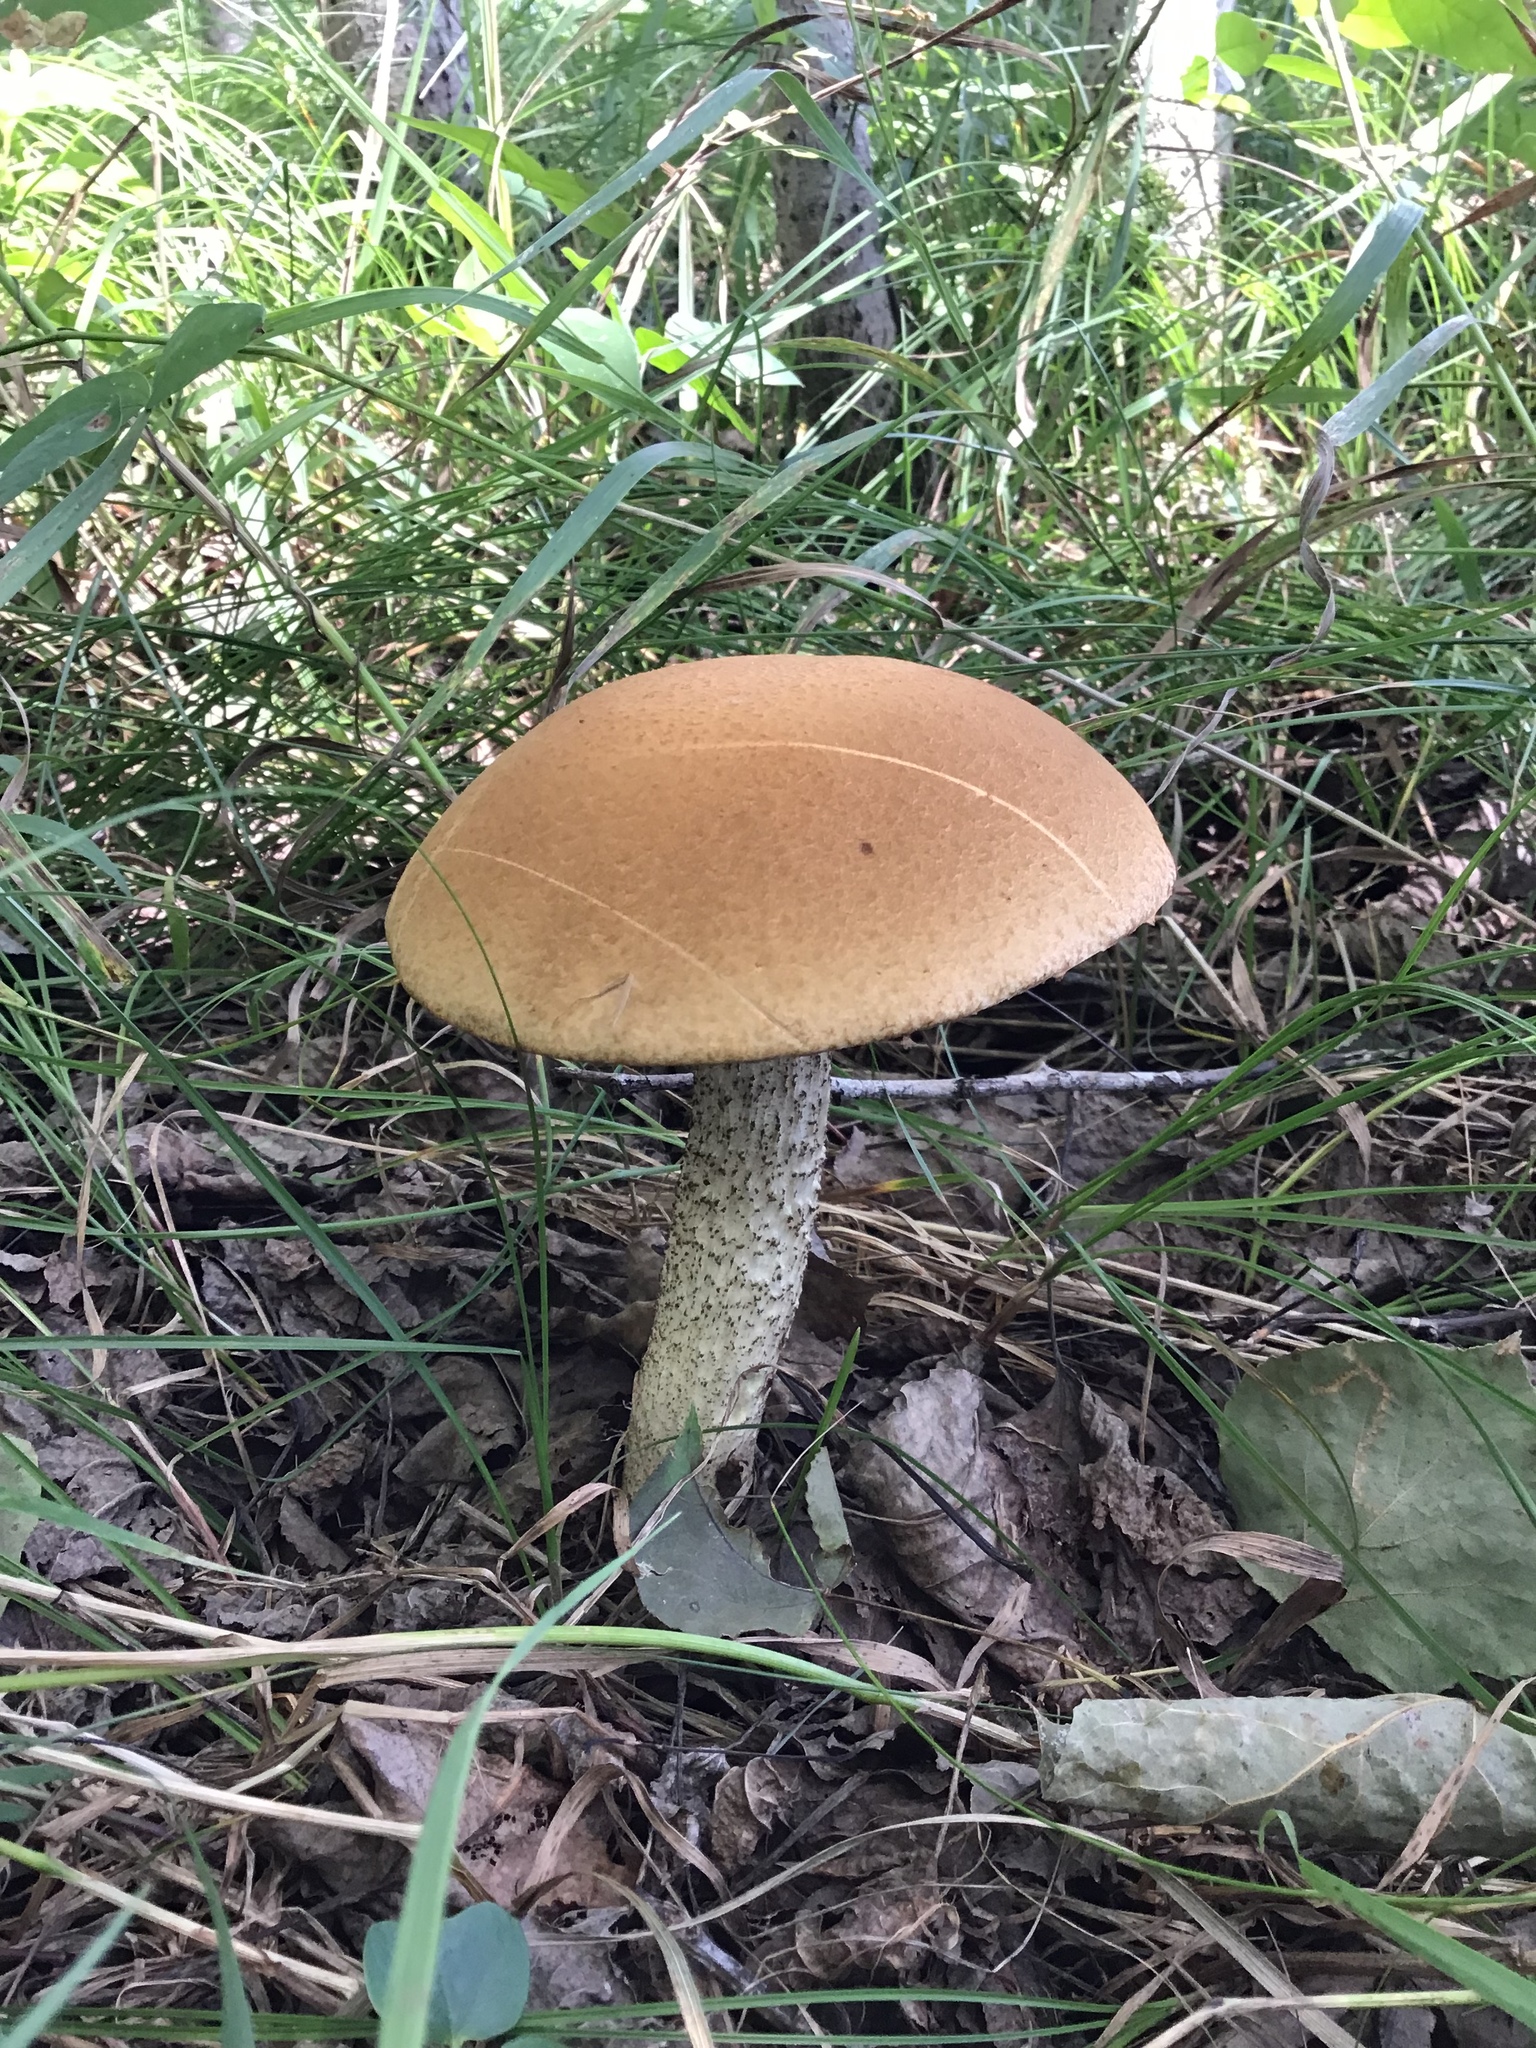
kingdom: Fungi
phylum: Basidiomycota
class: Agaricomycetes
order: Boletales
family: Boletaceae
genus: Leccinum
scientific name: Leccinum insigne
